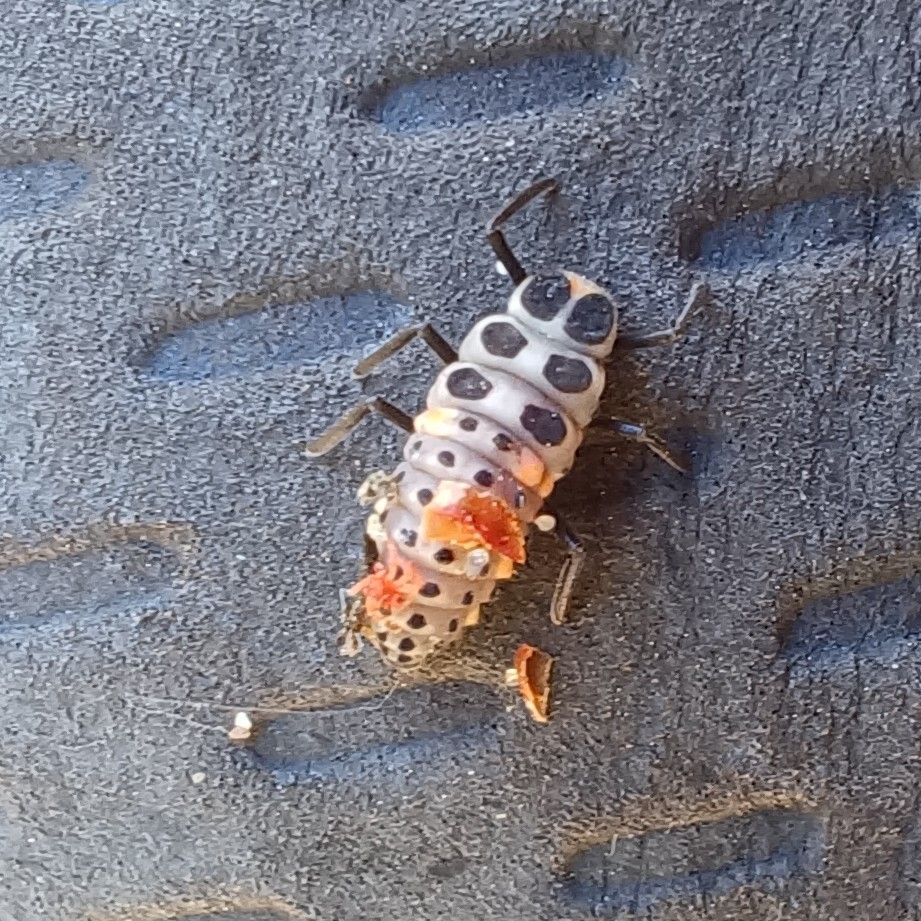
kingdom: Animalia
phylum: Arthropoda
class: Insecta
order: Coleoptera
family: Coccinellidae
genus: Myzia
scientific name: Myzia oblongoguttata
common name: Striped ladybird
